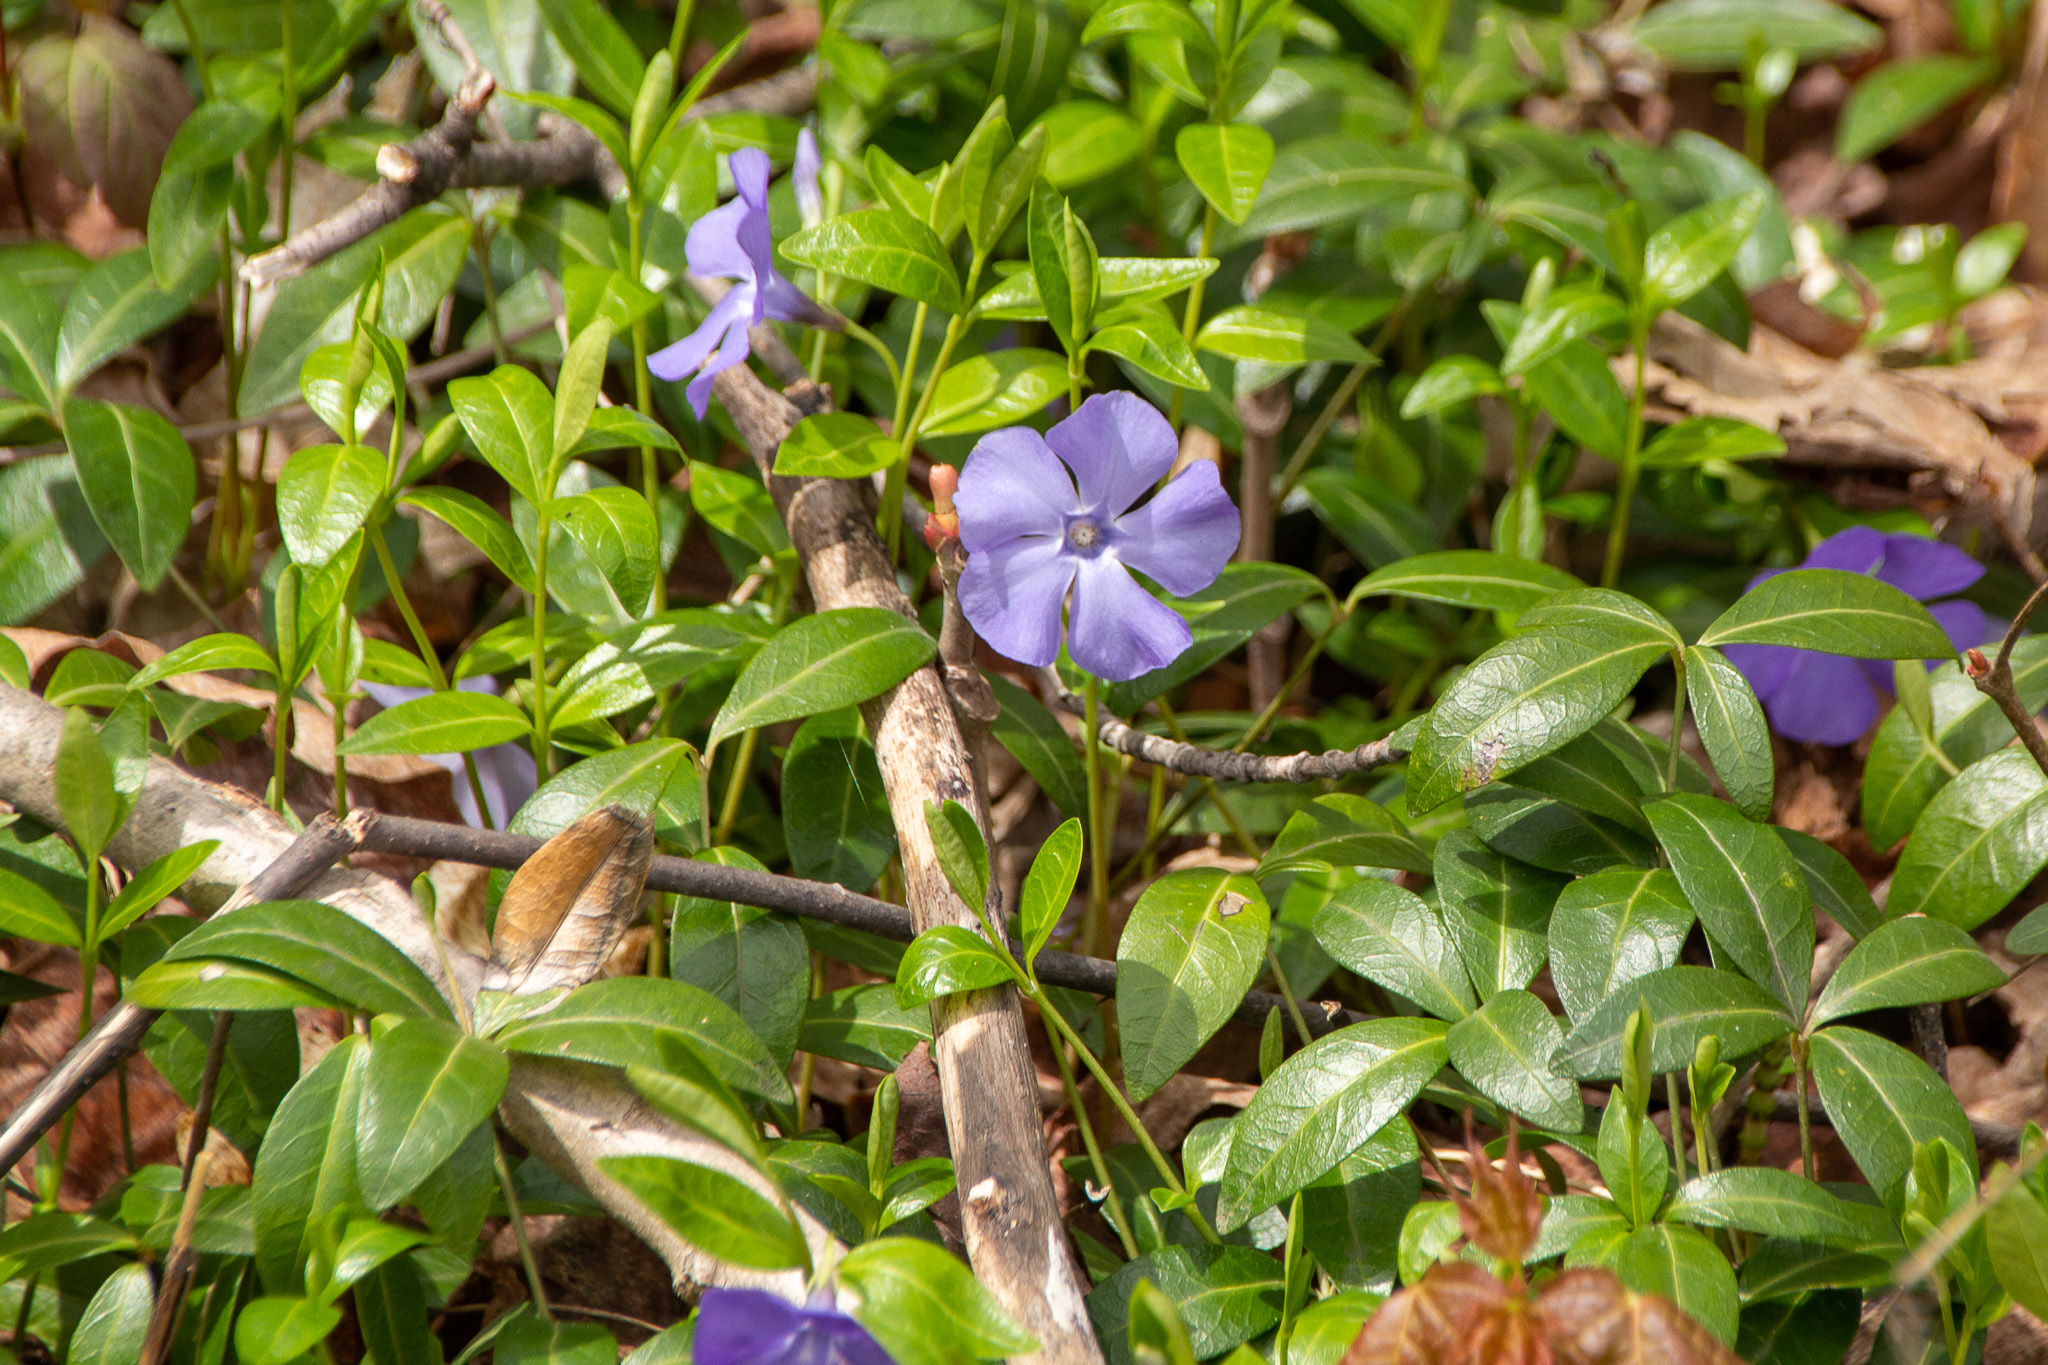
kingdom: Plantae
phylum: Tracheophyta
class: Magnoliopsida
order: Gentianales
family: Apocynaceae
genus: Vinca
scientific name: Vinca minor
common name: Lesser periwinkle
